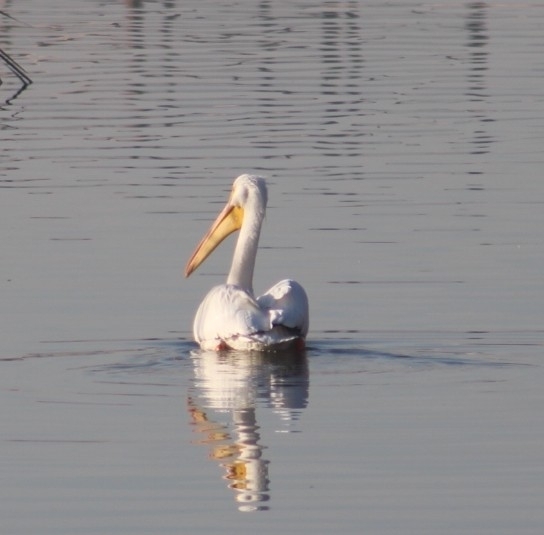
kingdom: Animalia
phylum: Chordata
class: Aves
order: Pelecaniformes
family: Pelecanidae
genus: Pelecanus
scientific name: Pelecanus erythrorhynchos
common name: American white pelican
